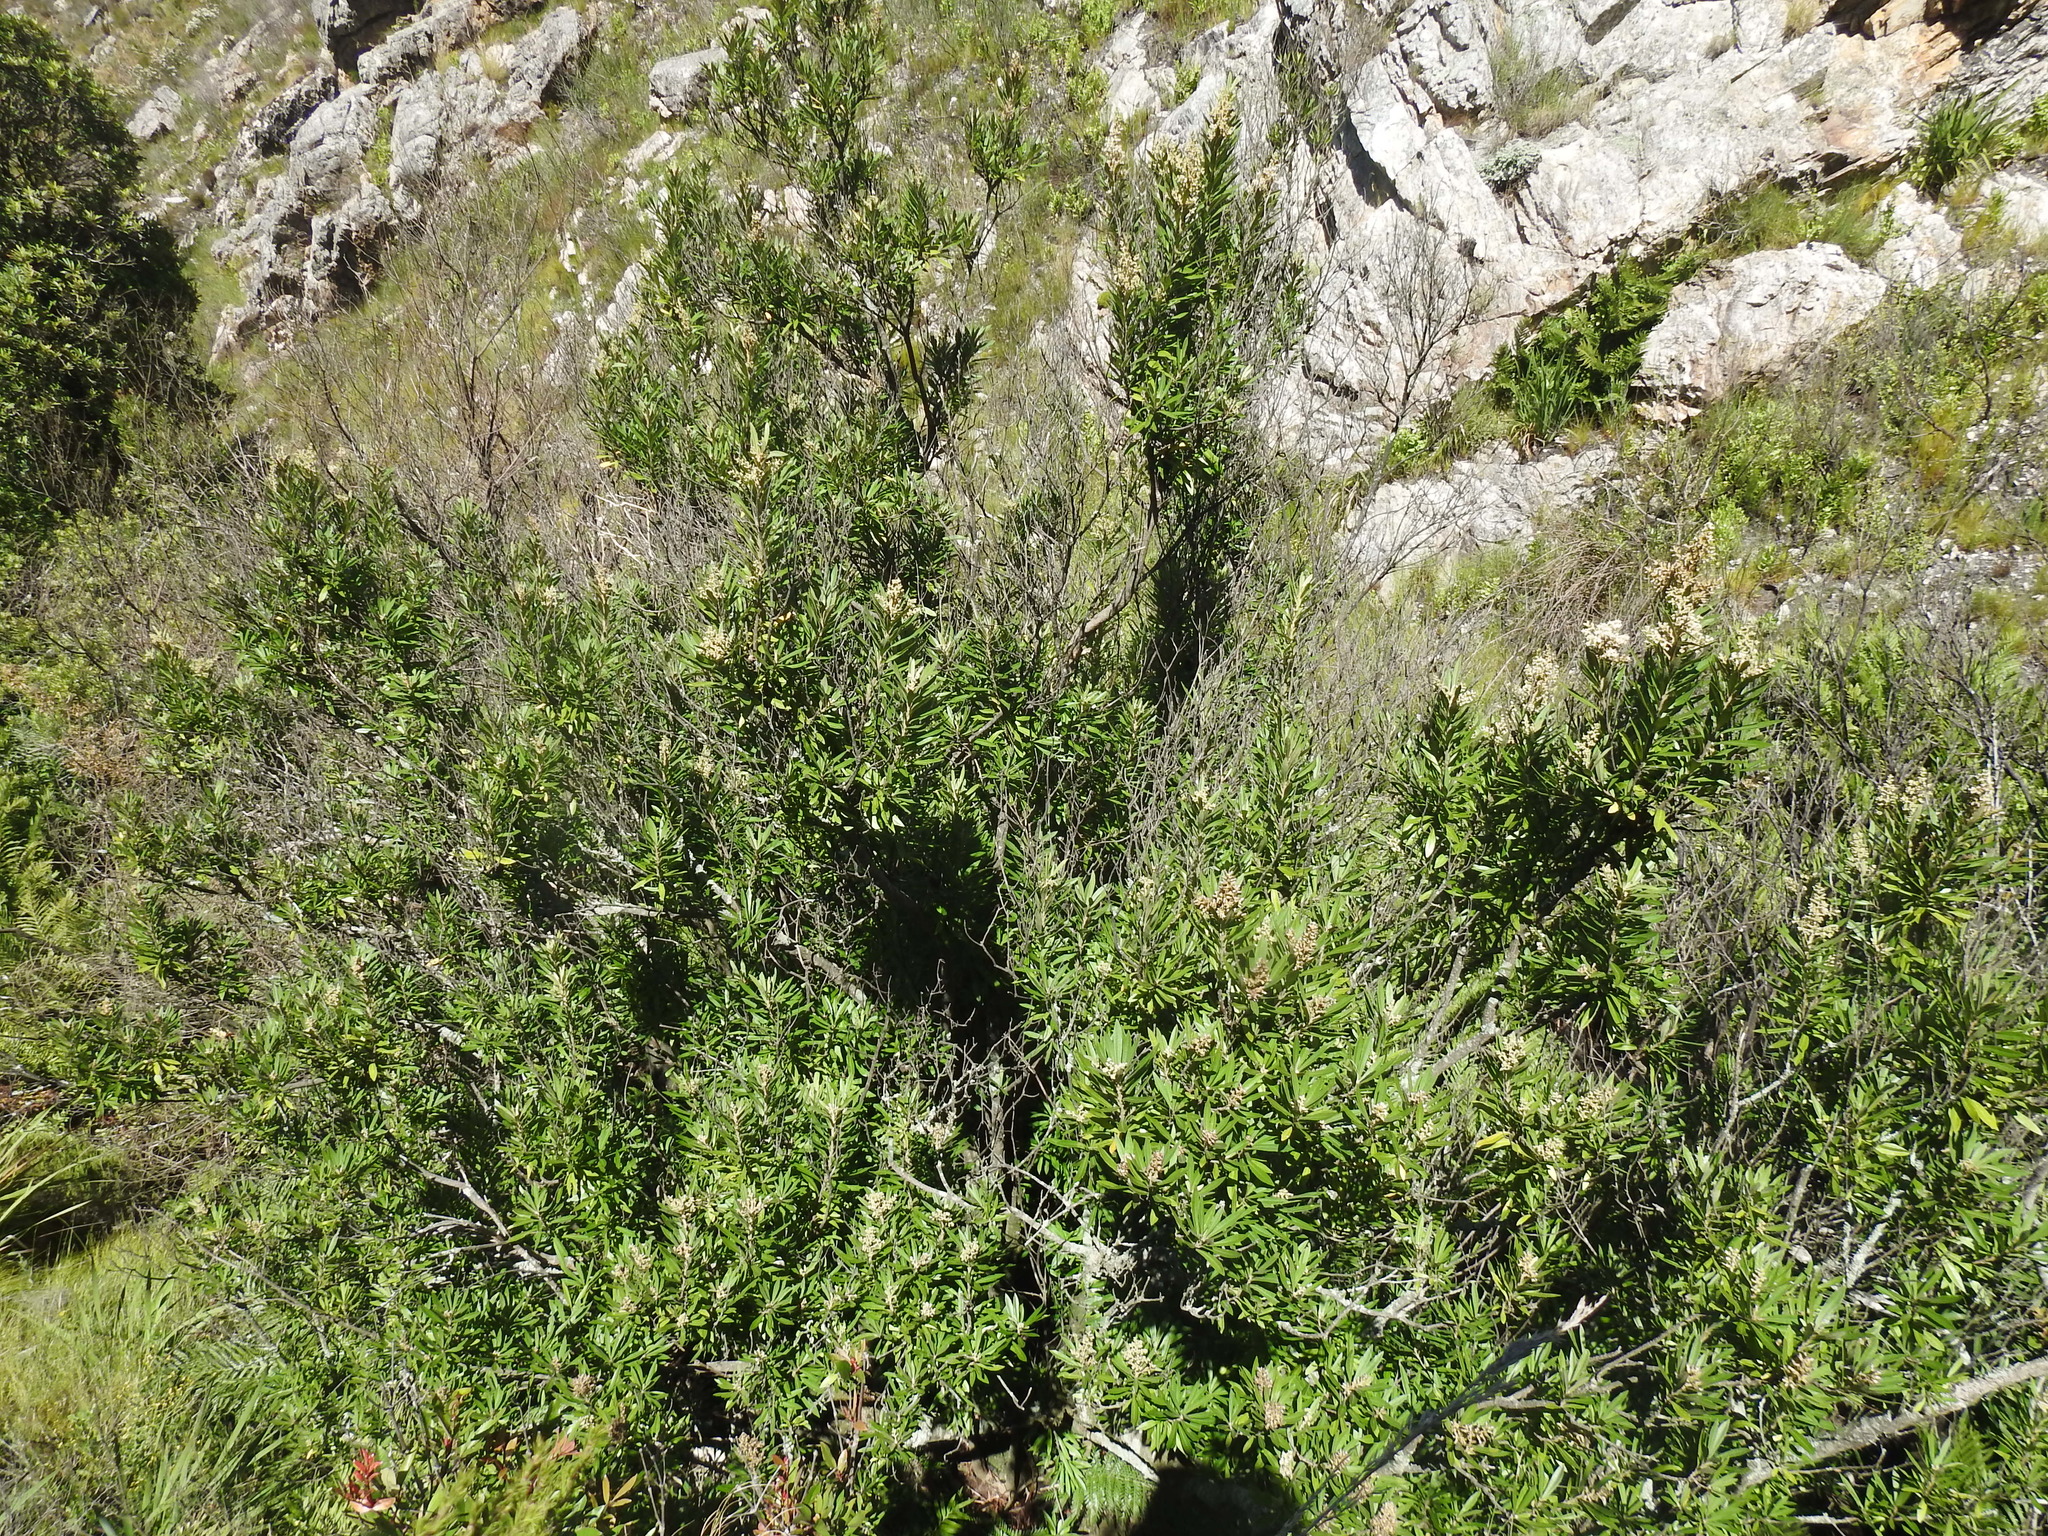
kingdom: Plantae
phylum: Tracheophyta
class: Magnoliopsida
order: Asterales
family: Asteraceae
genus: Brachylaena
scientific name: Brachylaena neriifolia
